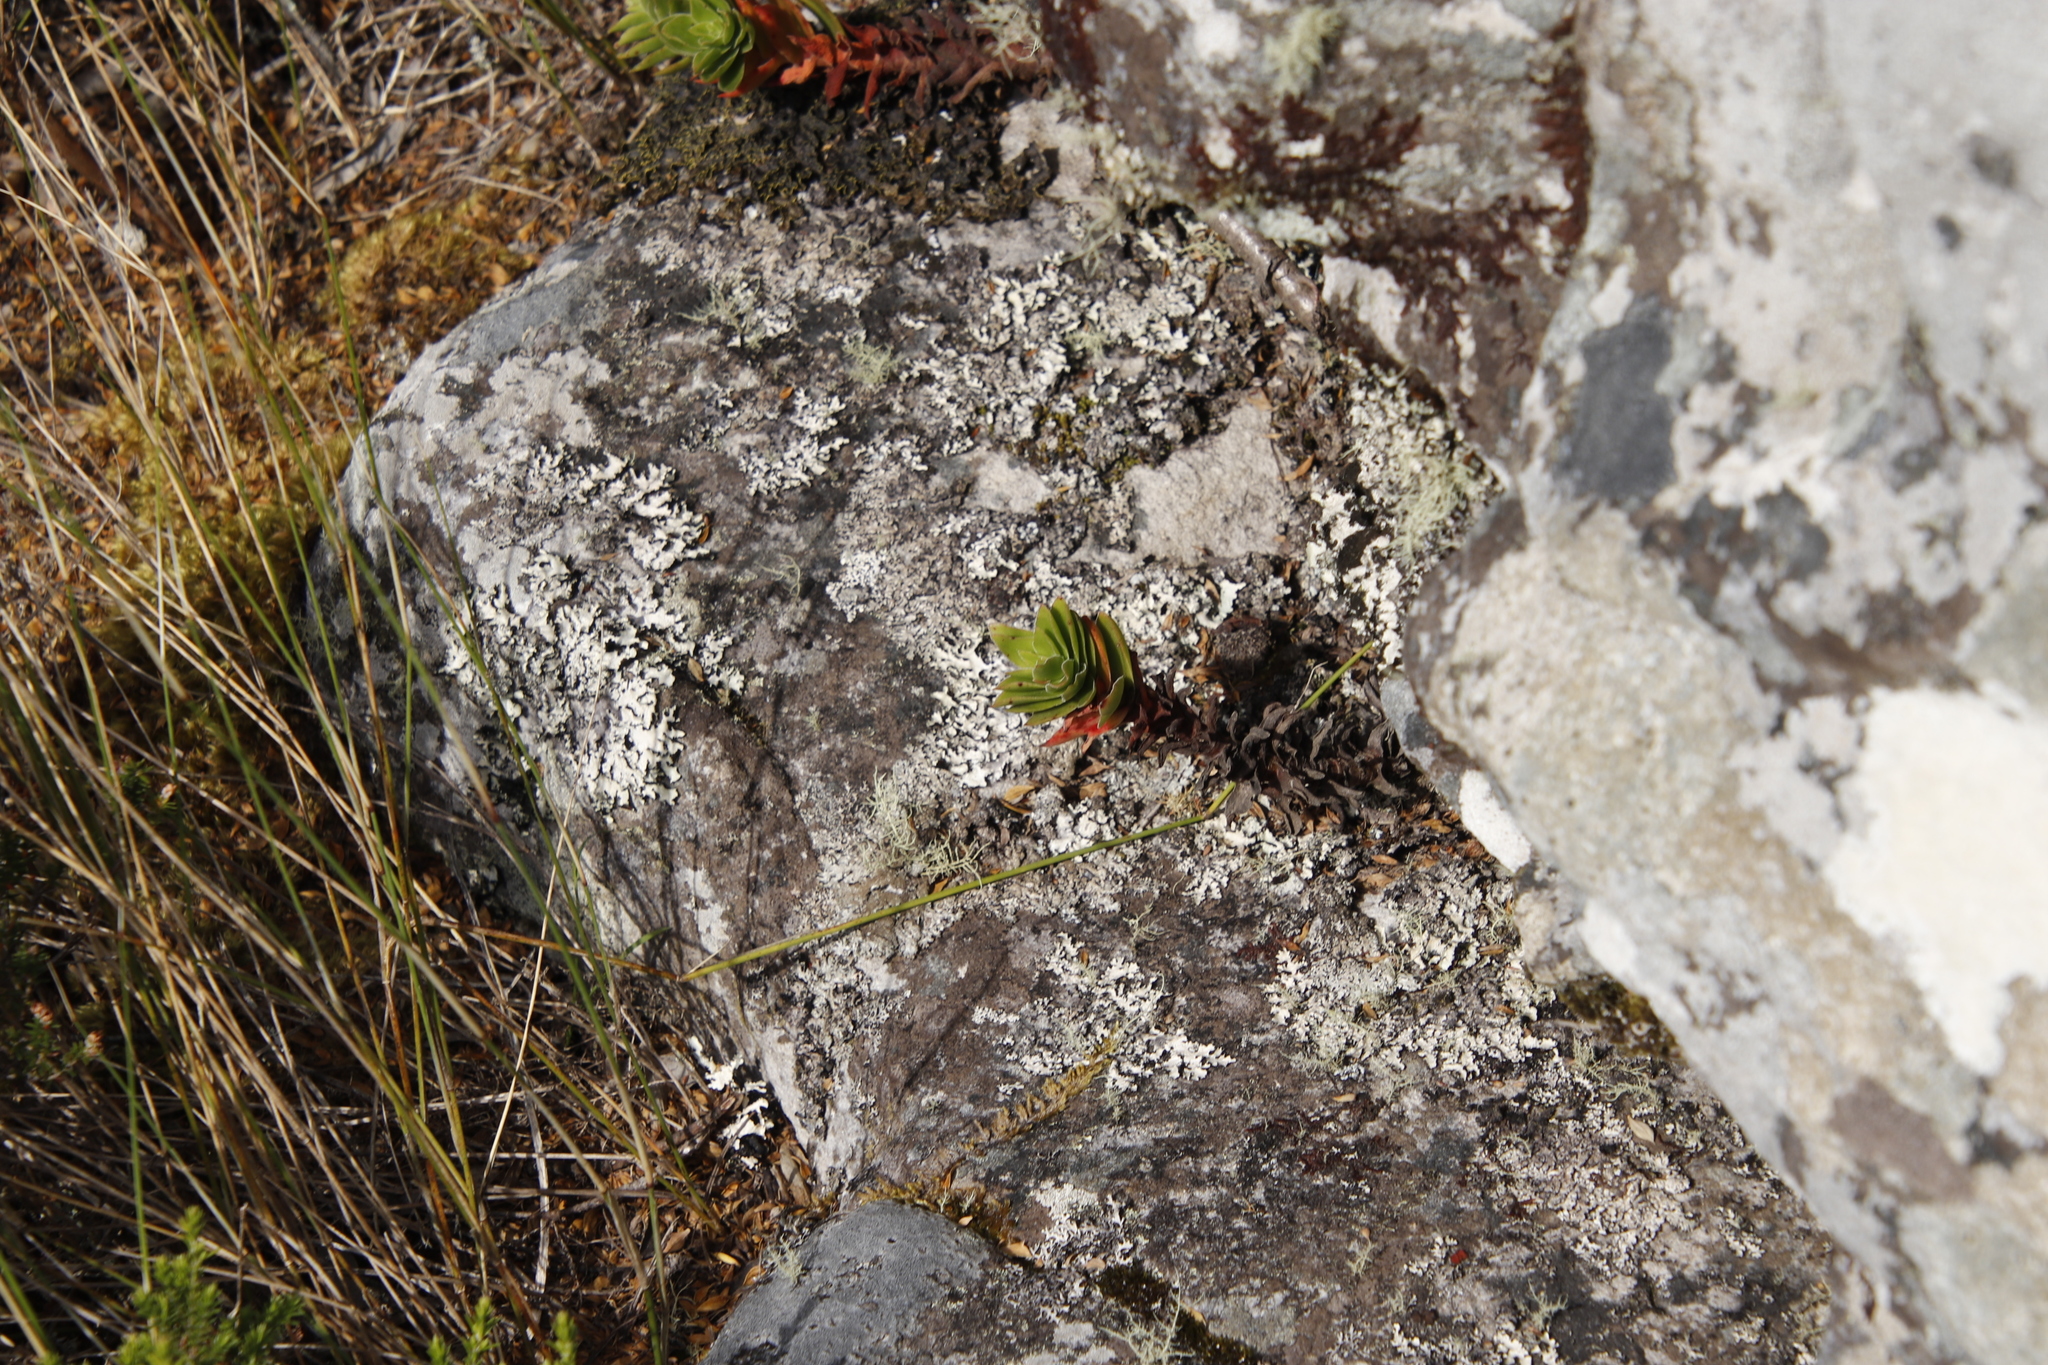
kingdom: Plantae
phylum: Tracheophyta
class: Magnoliopsida
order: Saxifragales
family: Crassulaceae
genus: Crassula
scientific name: Crassula coccinea
